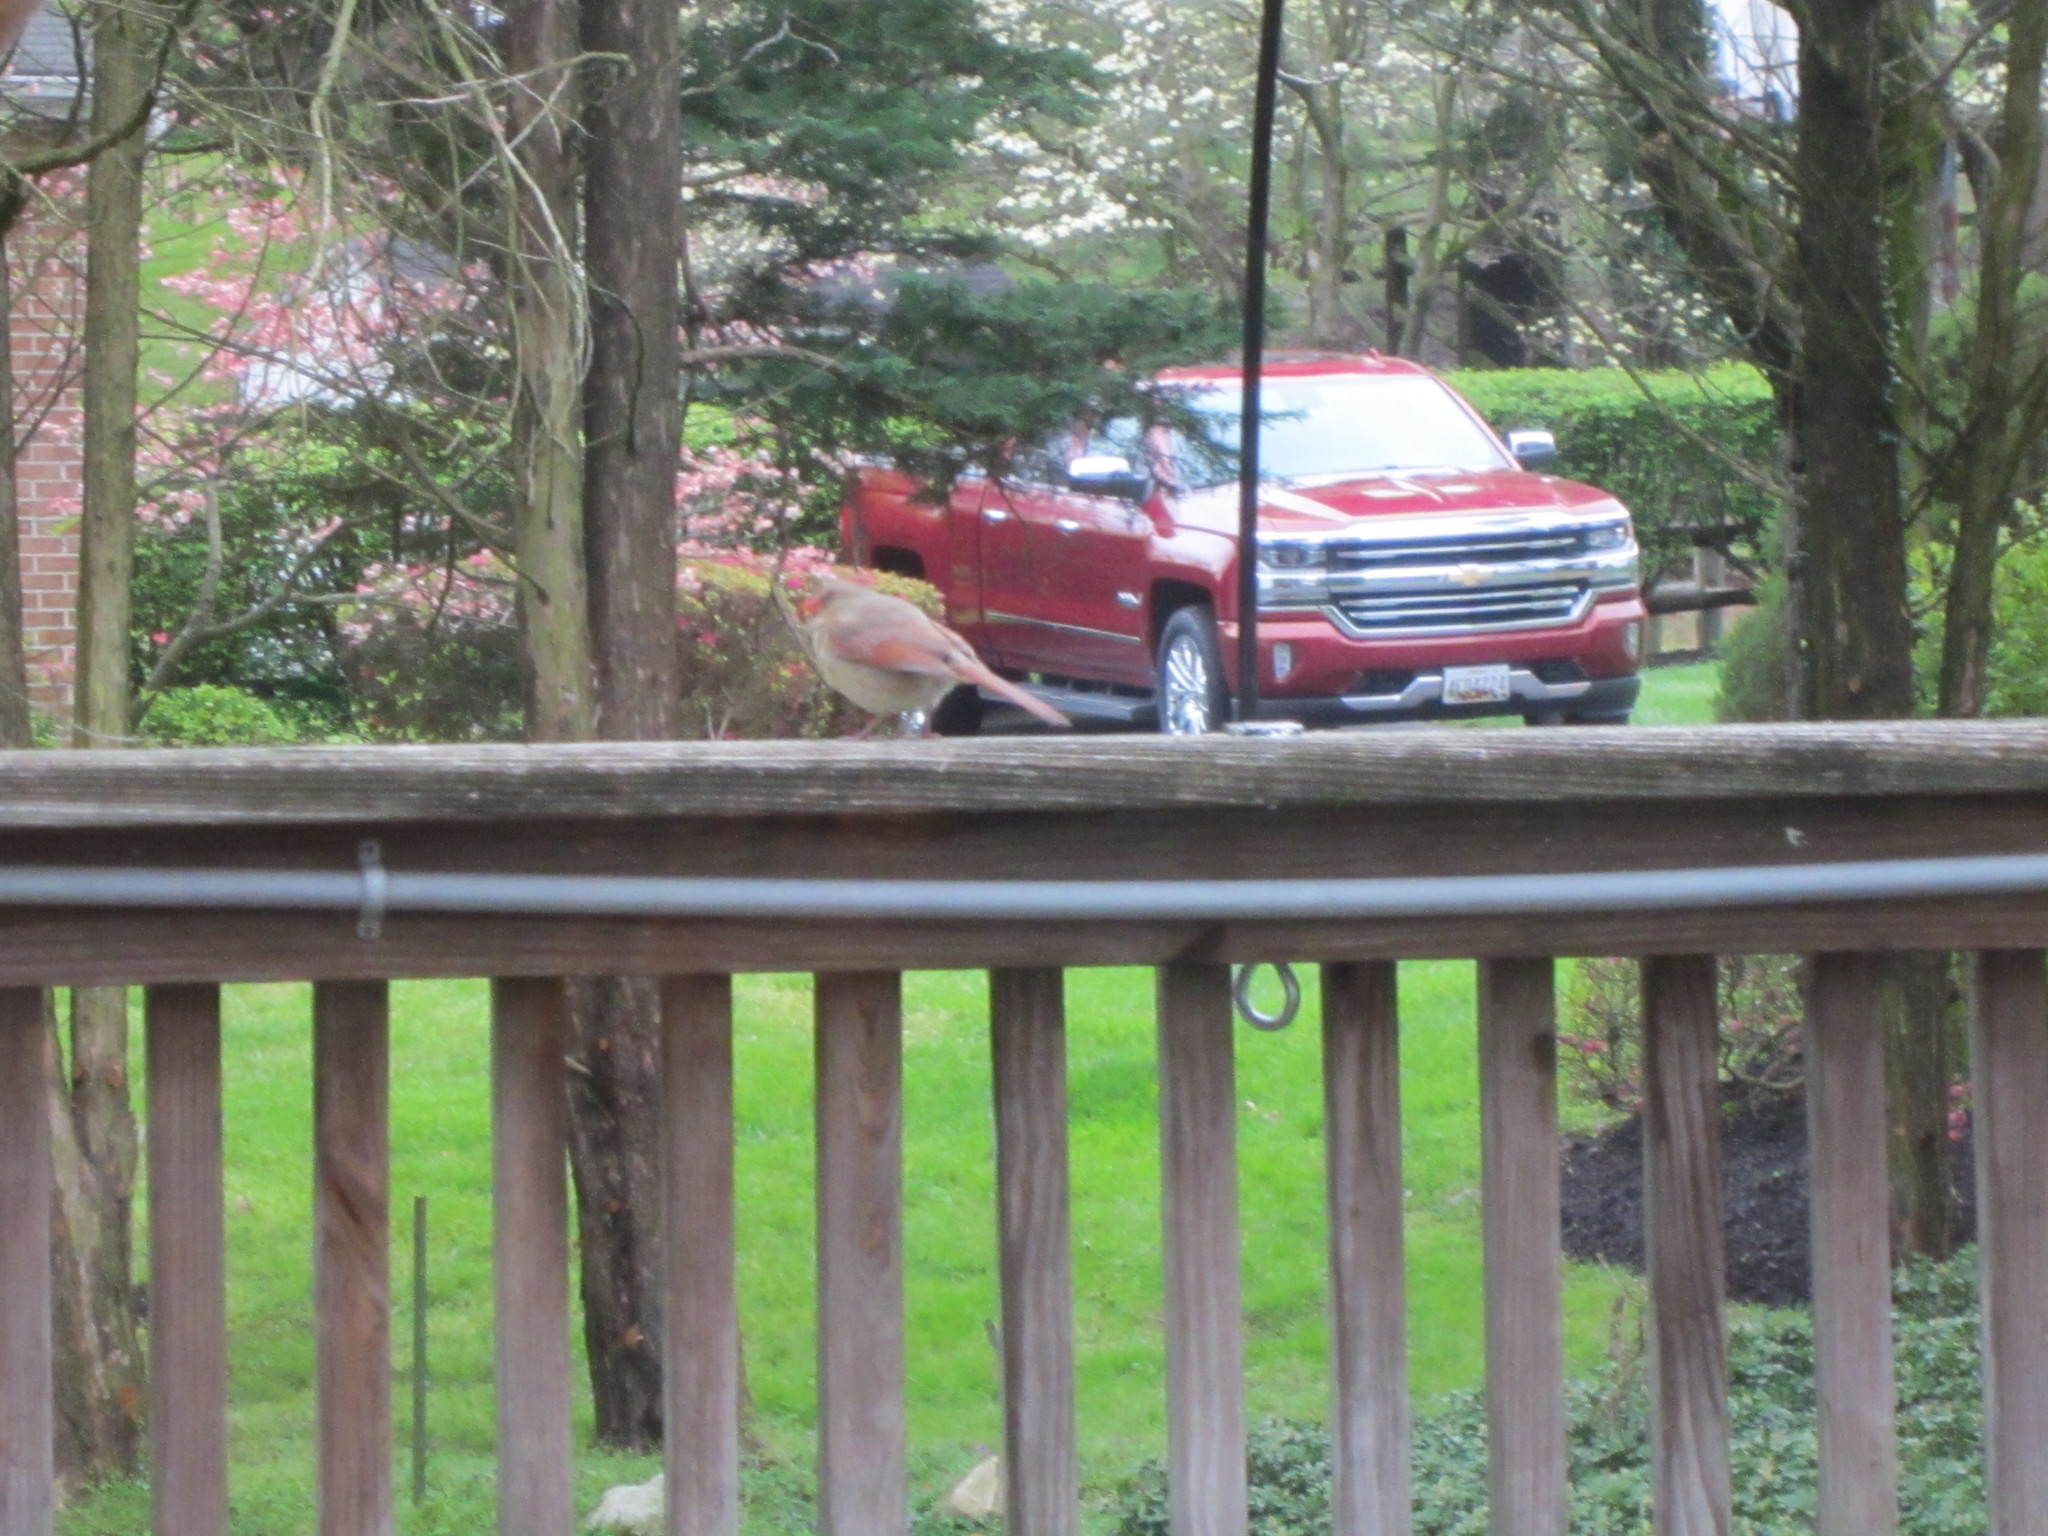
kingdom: Animalia
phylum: Chordata
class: Aves
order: Passeriformes
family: Cardinalidae
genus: Cardinalis
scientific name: Cardinalis cardinalis
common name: Northern cardinal
